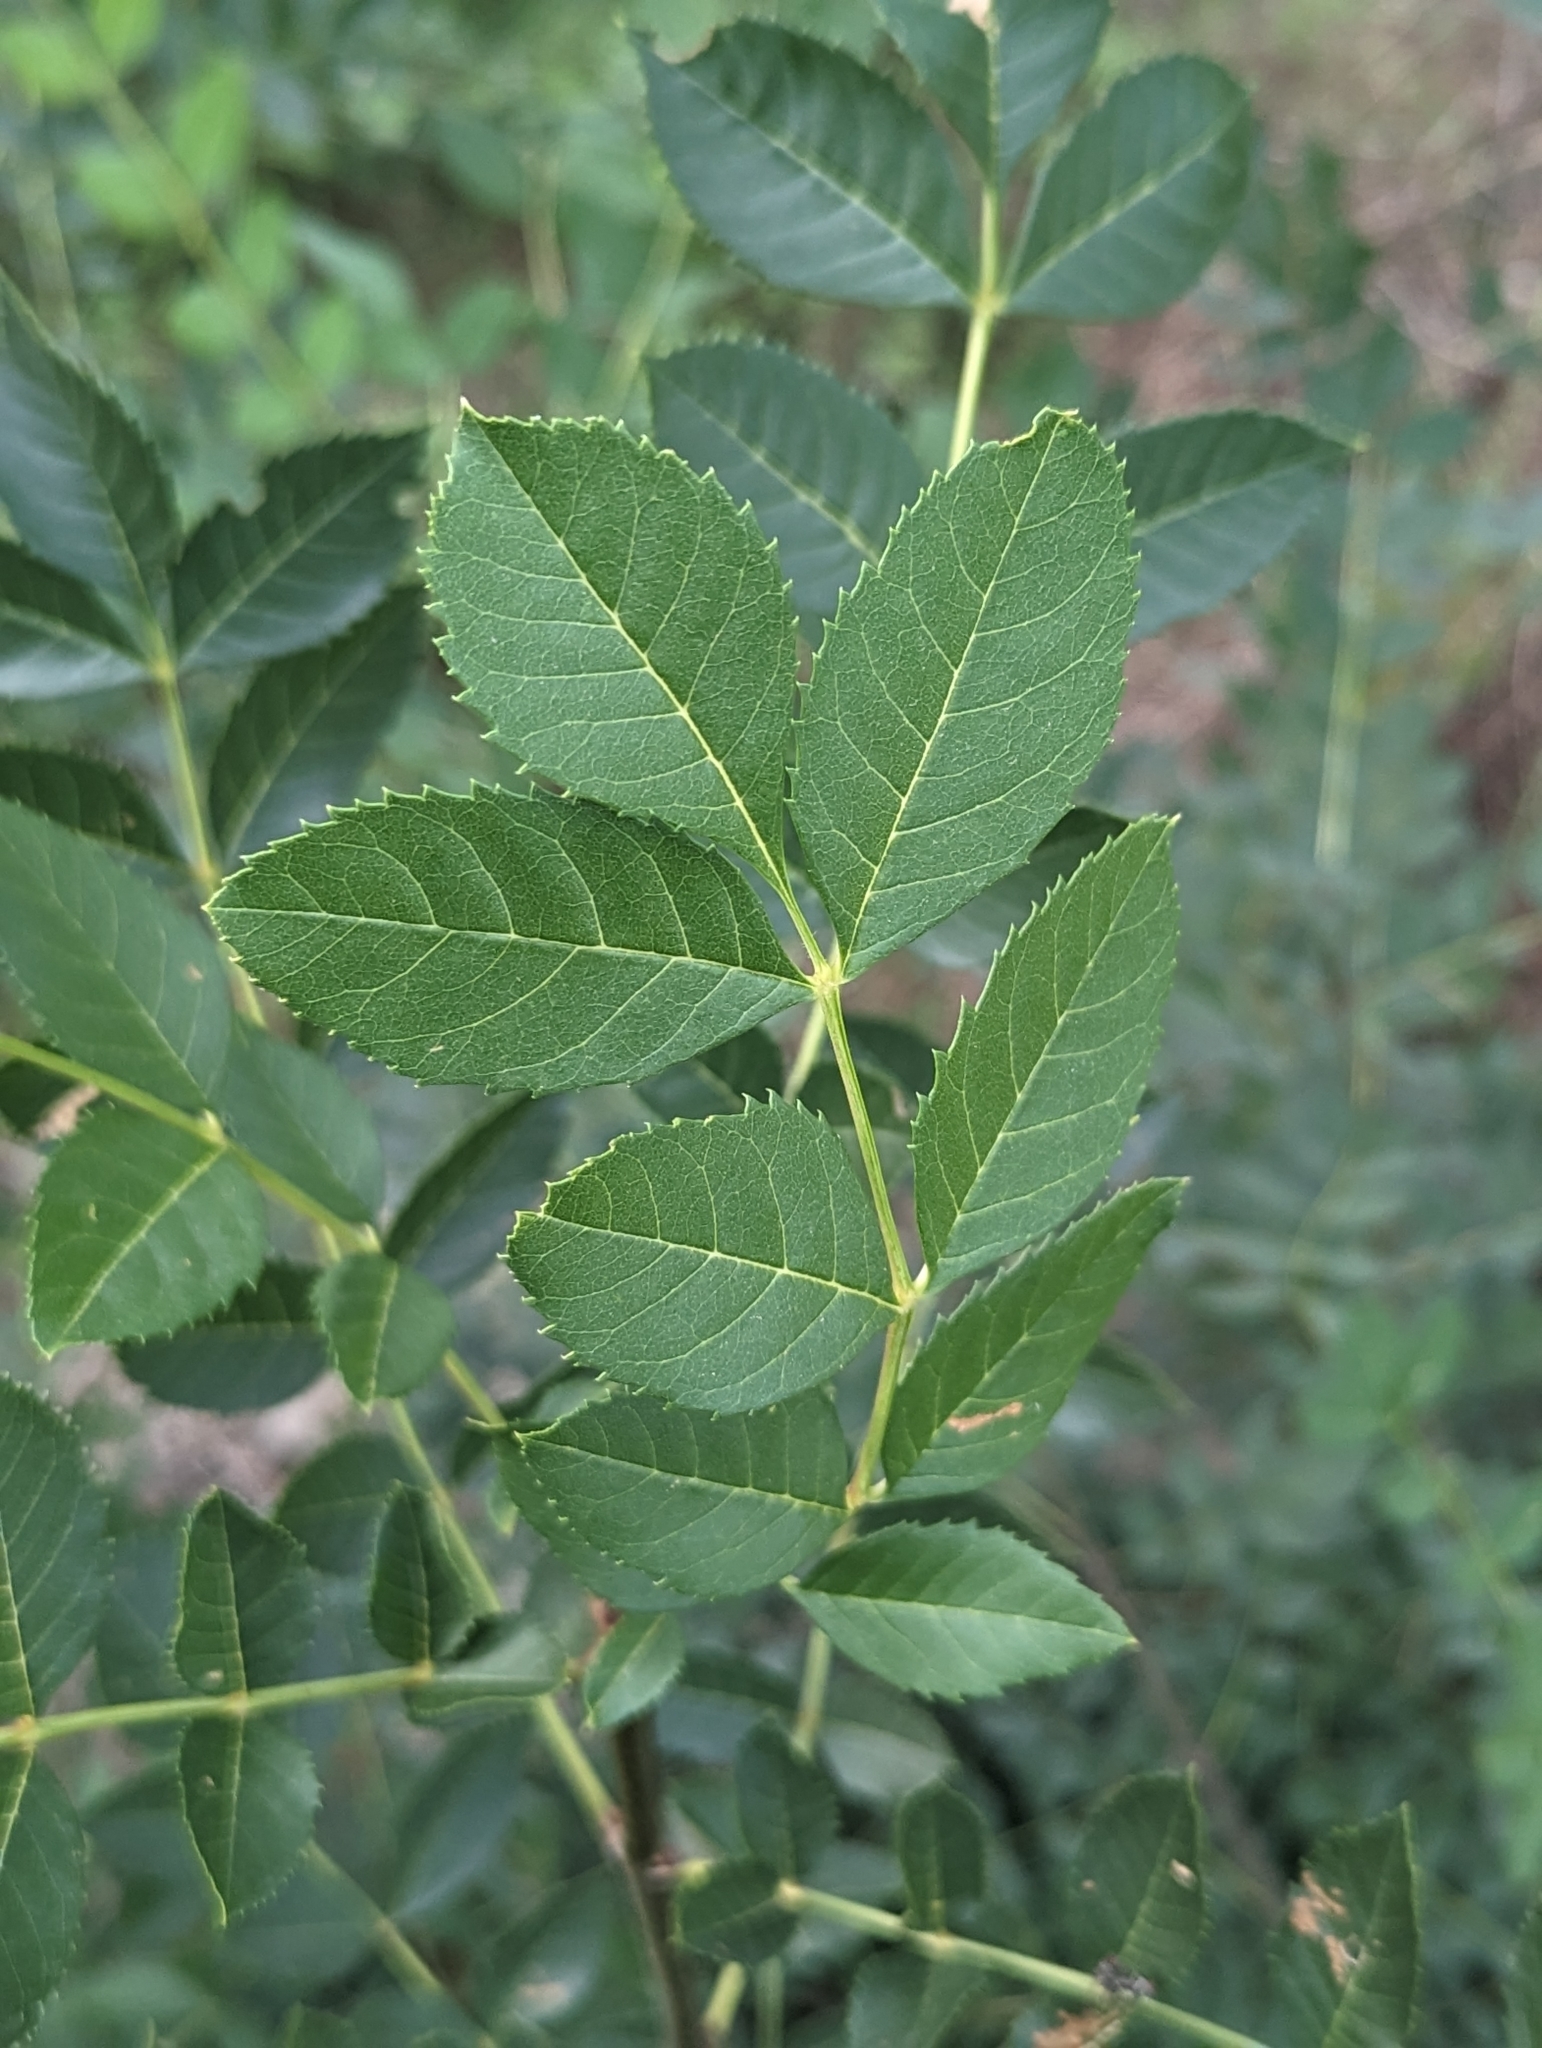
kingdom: Plantae
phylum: Tracheophyta
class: Magnoliopsida
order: Lamiales
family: Oleaceae
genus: Fraxinus
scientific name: Fraxinus angustifolia
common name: Narrow-leafed ash
